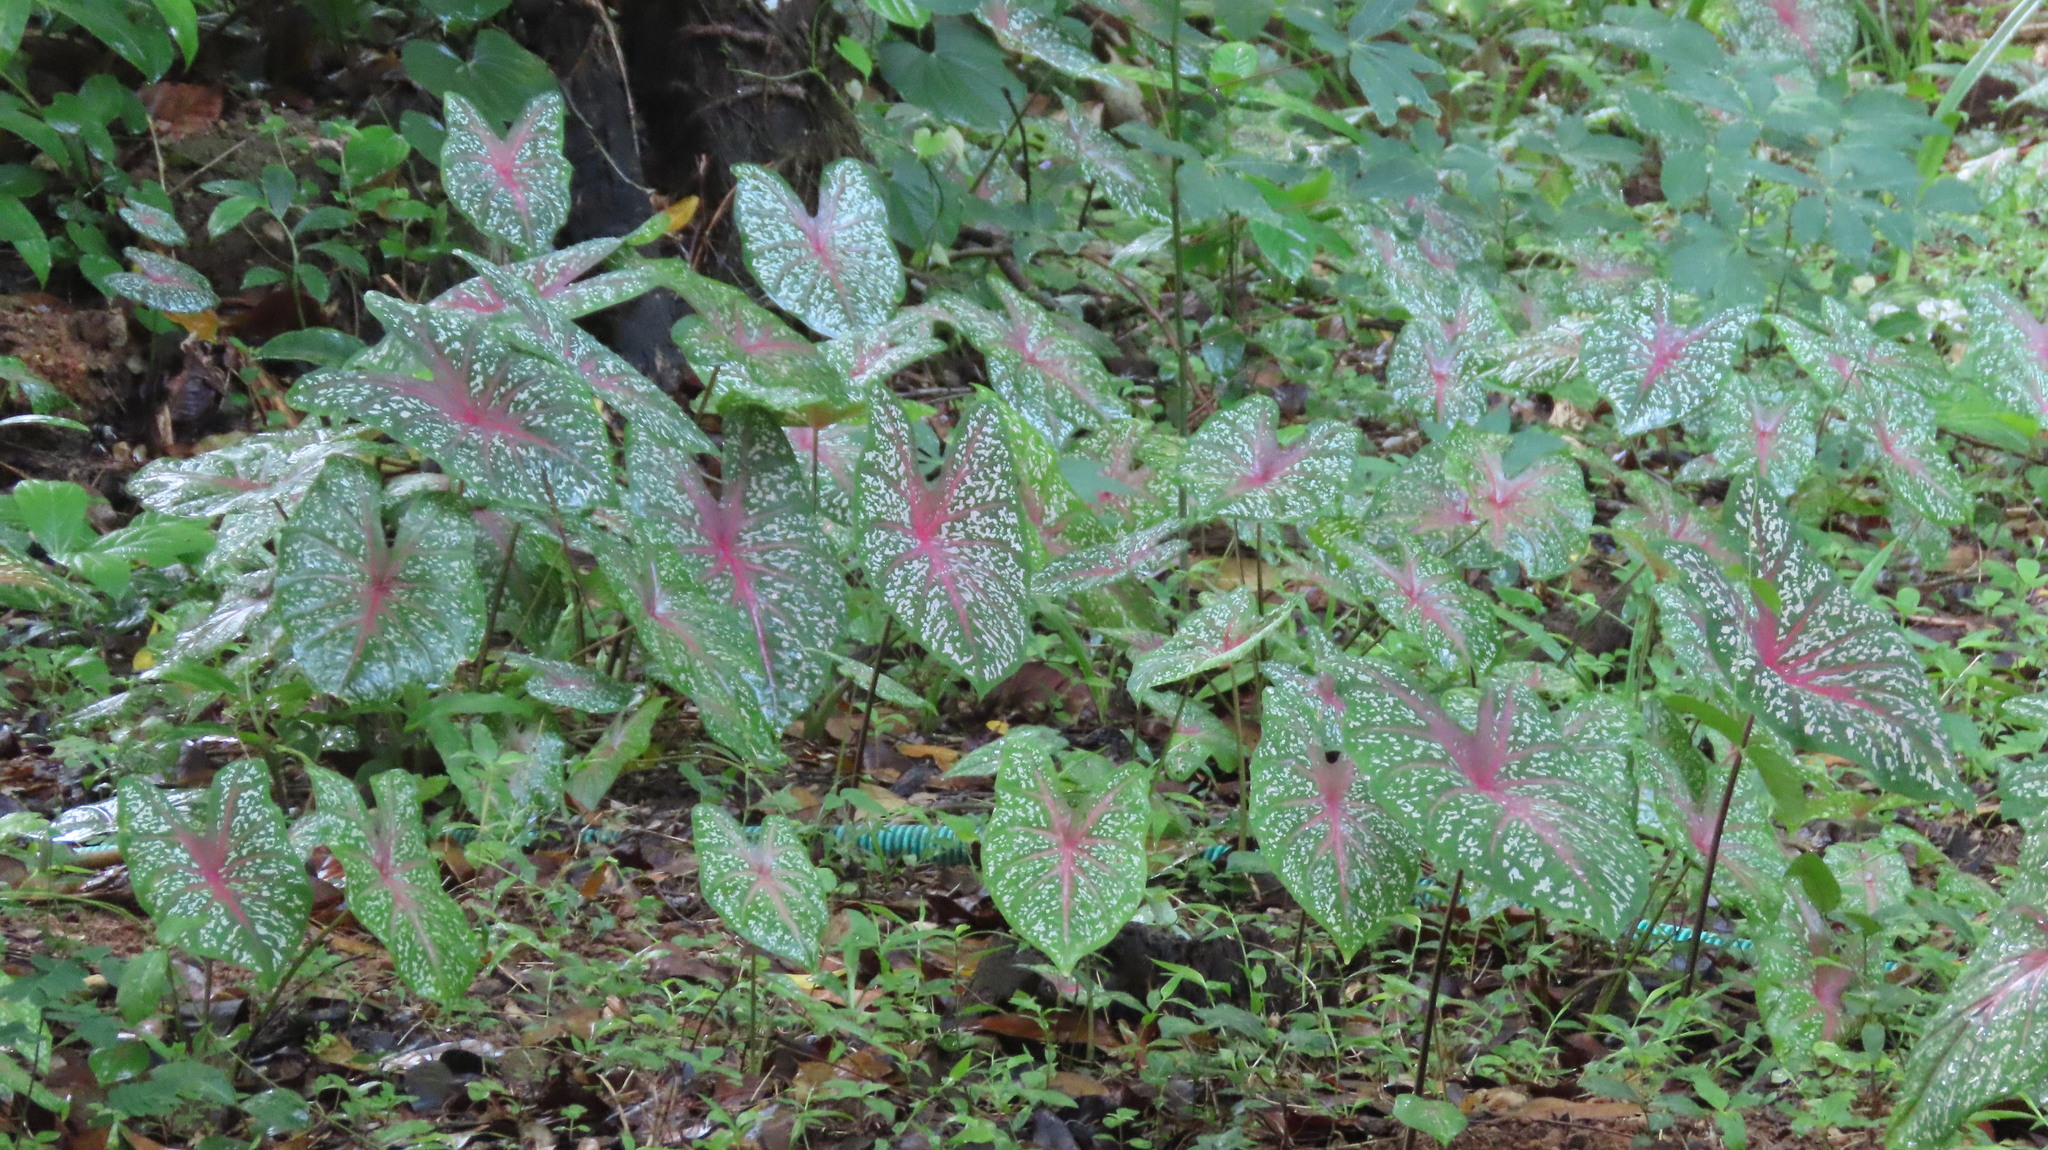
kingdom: Plantae
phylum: Tracheophyta
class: Liliopsida
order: Alismatales
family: Araceae
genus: Caladium
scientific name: Caladium bicolor
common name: Artist's pallet
